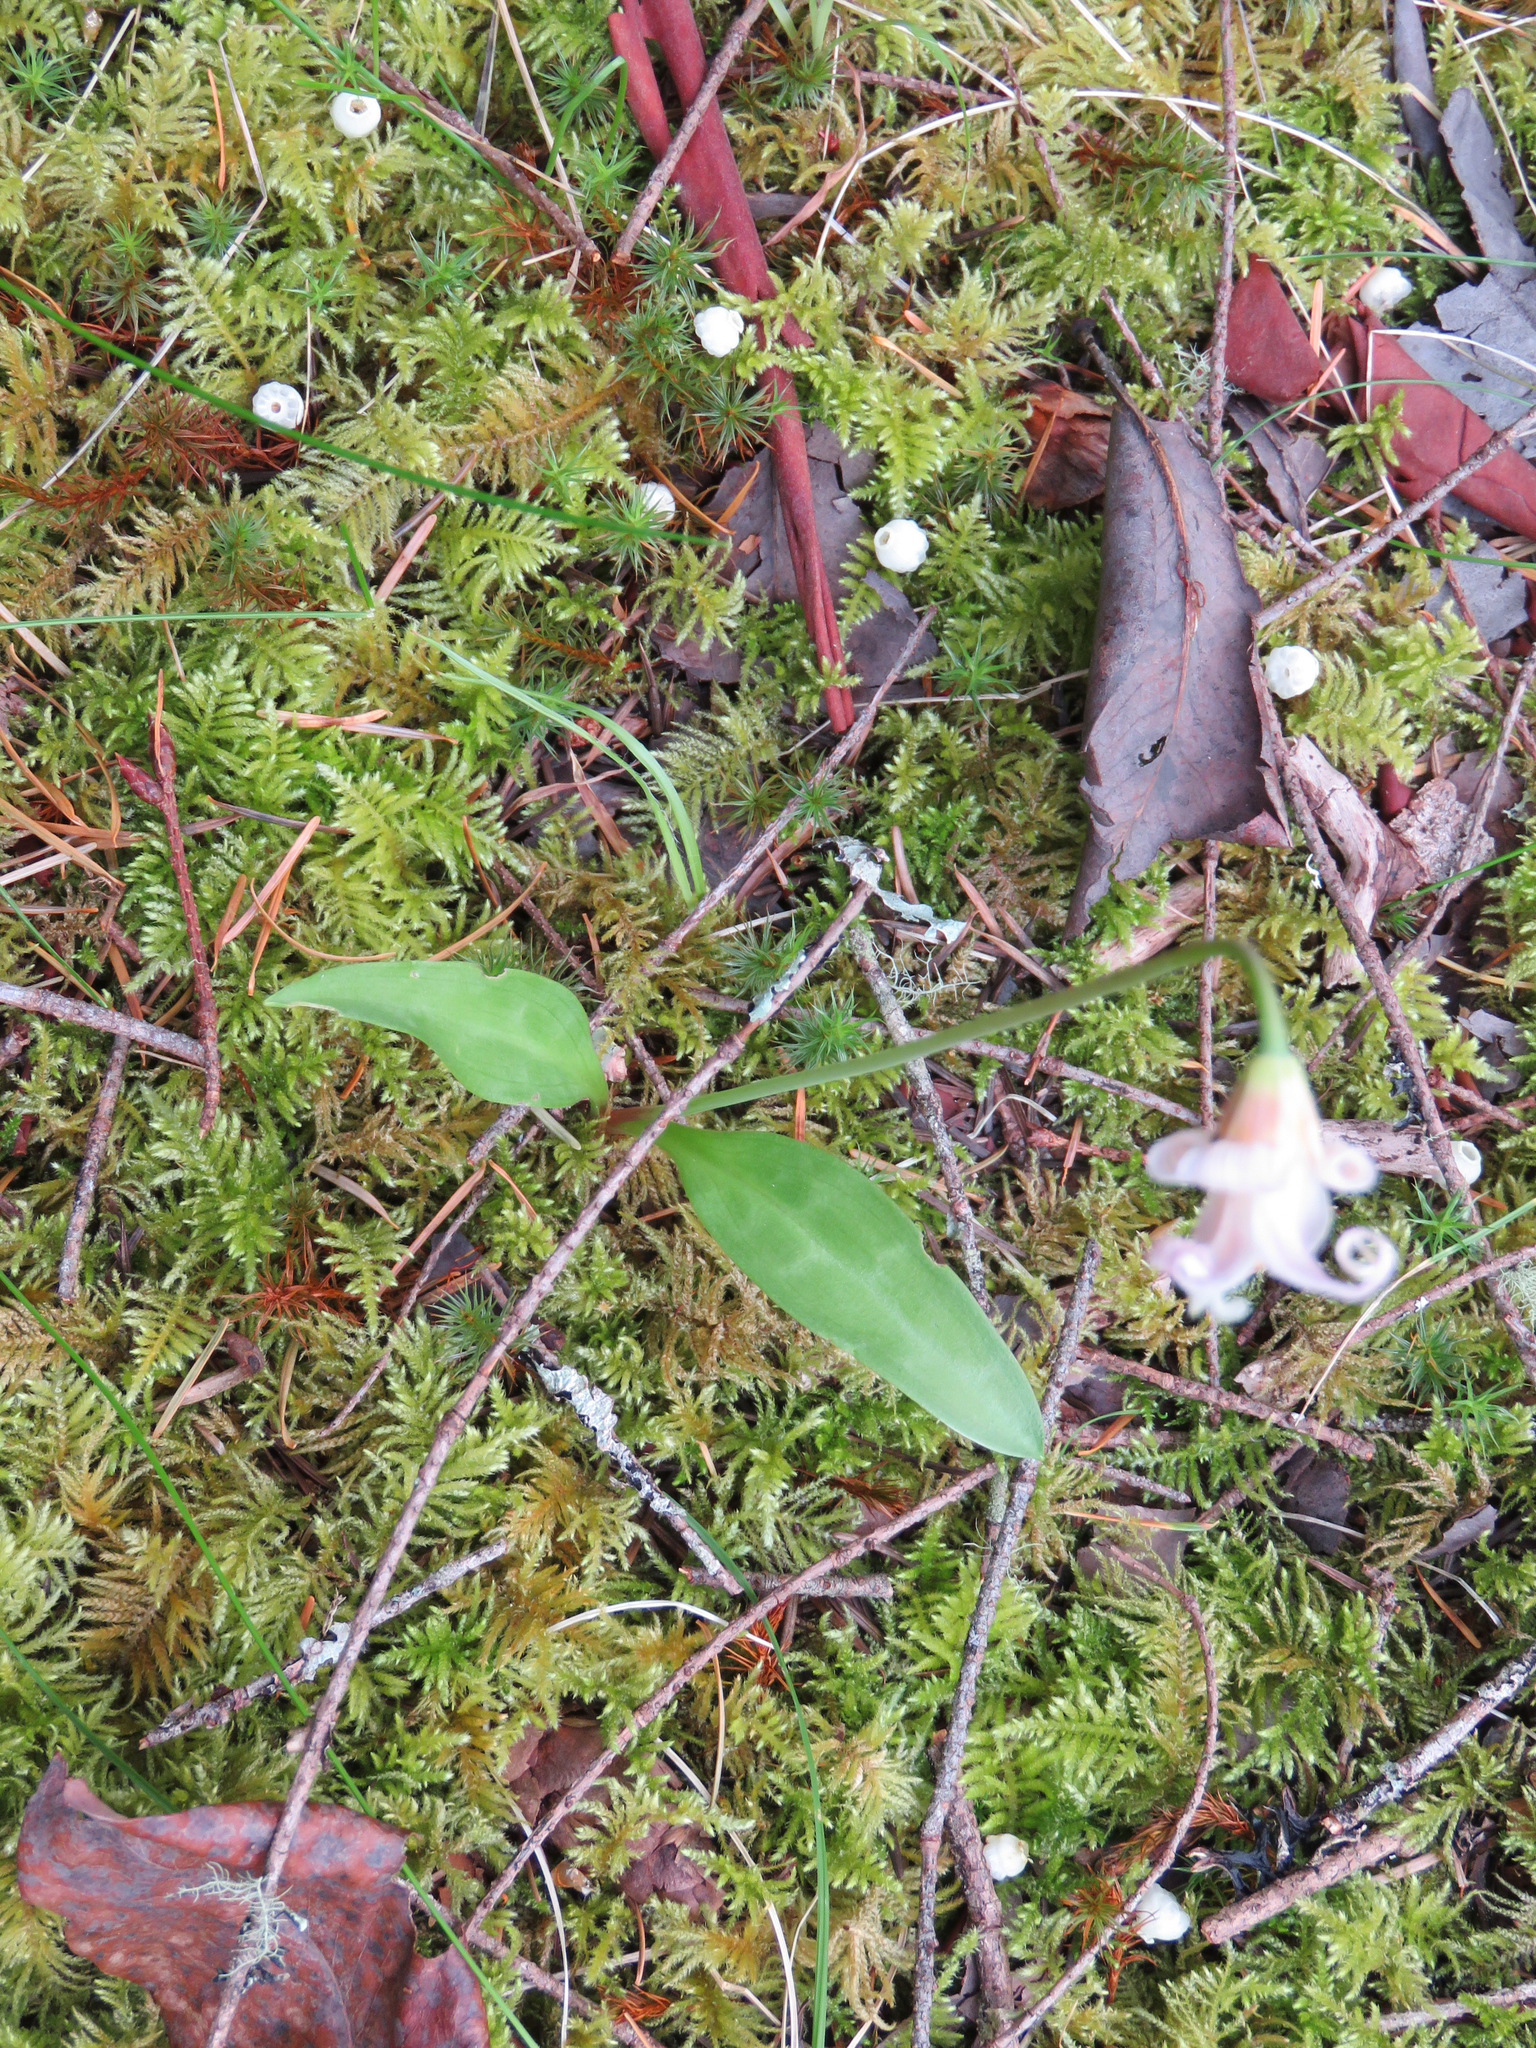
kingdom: Plantae
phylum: Tracheophyta
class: Liliopsida
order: Liliales
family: Liliaceae
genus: Erythronium
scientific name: Erythronium oregonum
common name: Giant adder's-tongue
